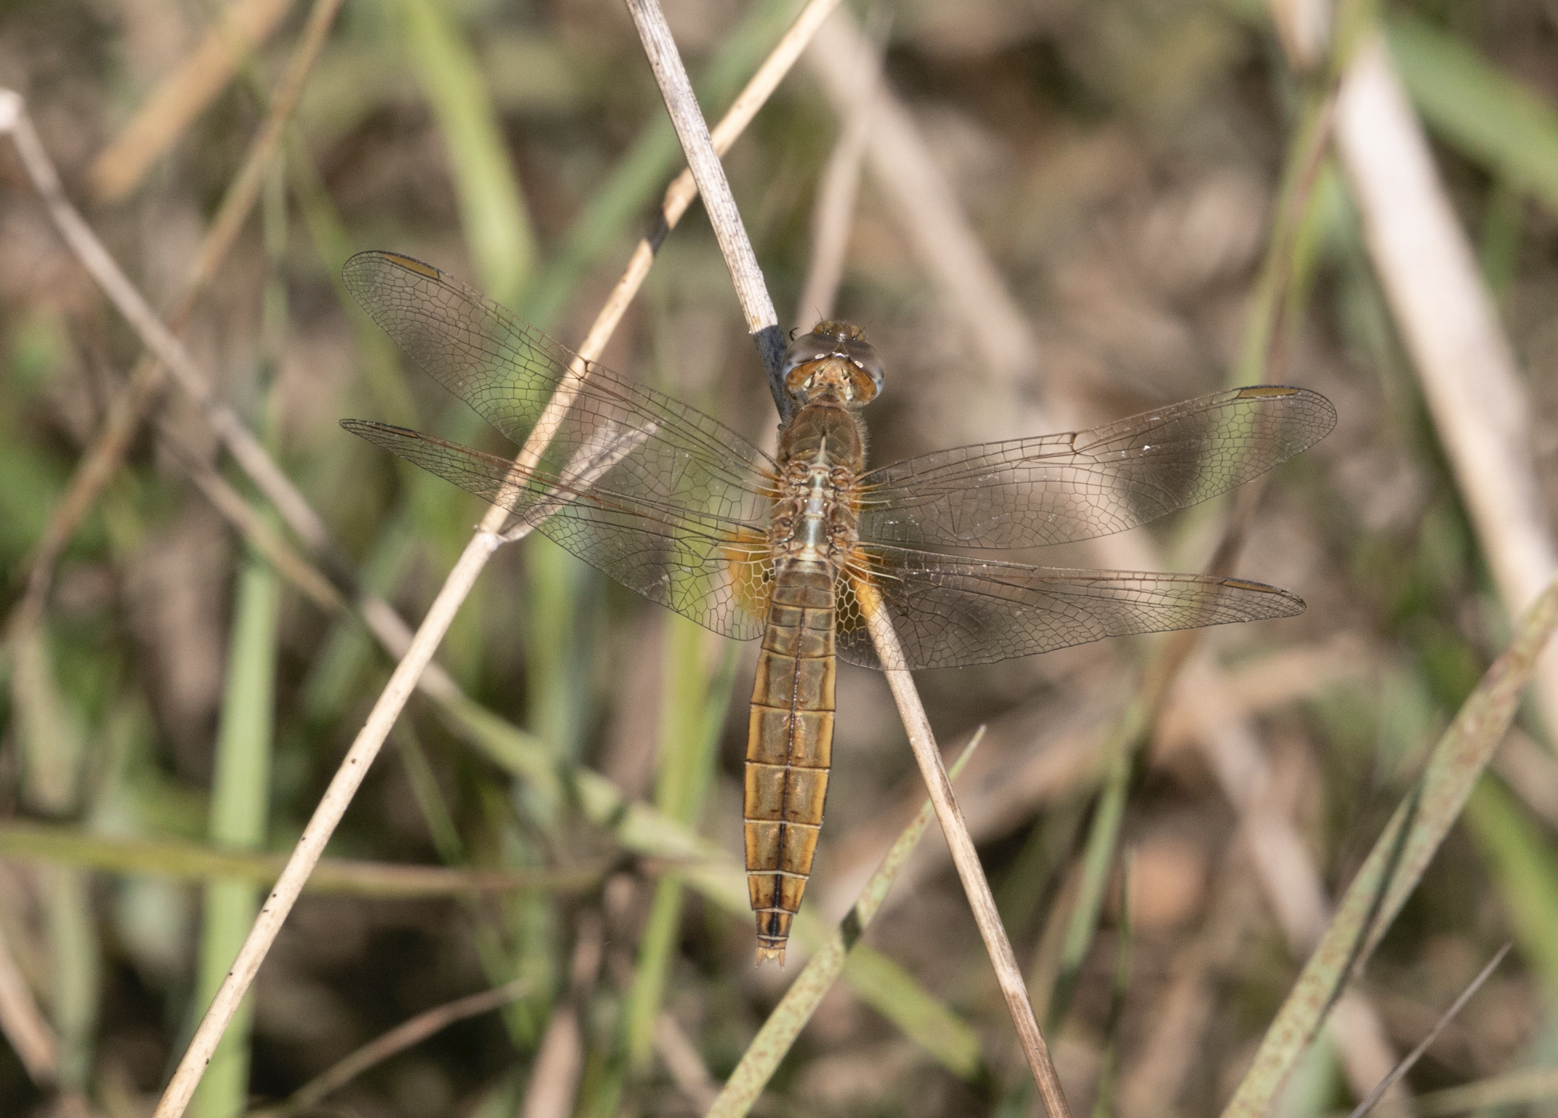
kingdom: Animalia
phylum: Arthropoda
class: Insecta
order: Odonata
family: Libellulidae
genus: Crocothemis
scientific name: Crocothemis erythraea
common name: Scarlet dragonfly
